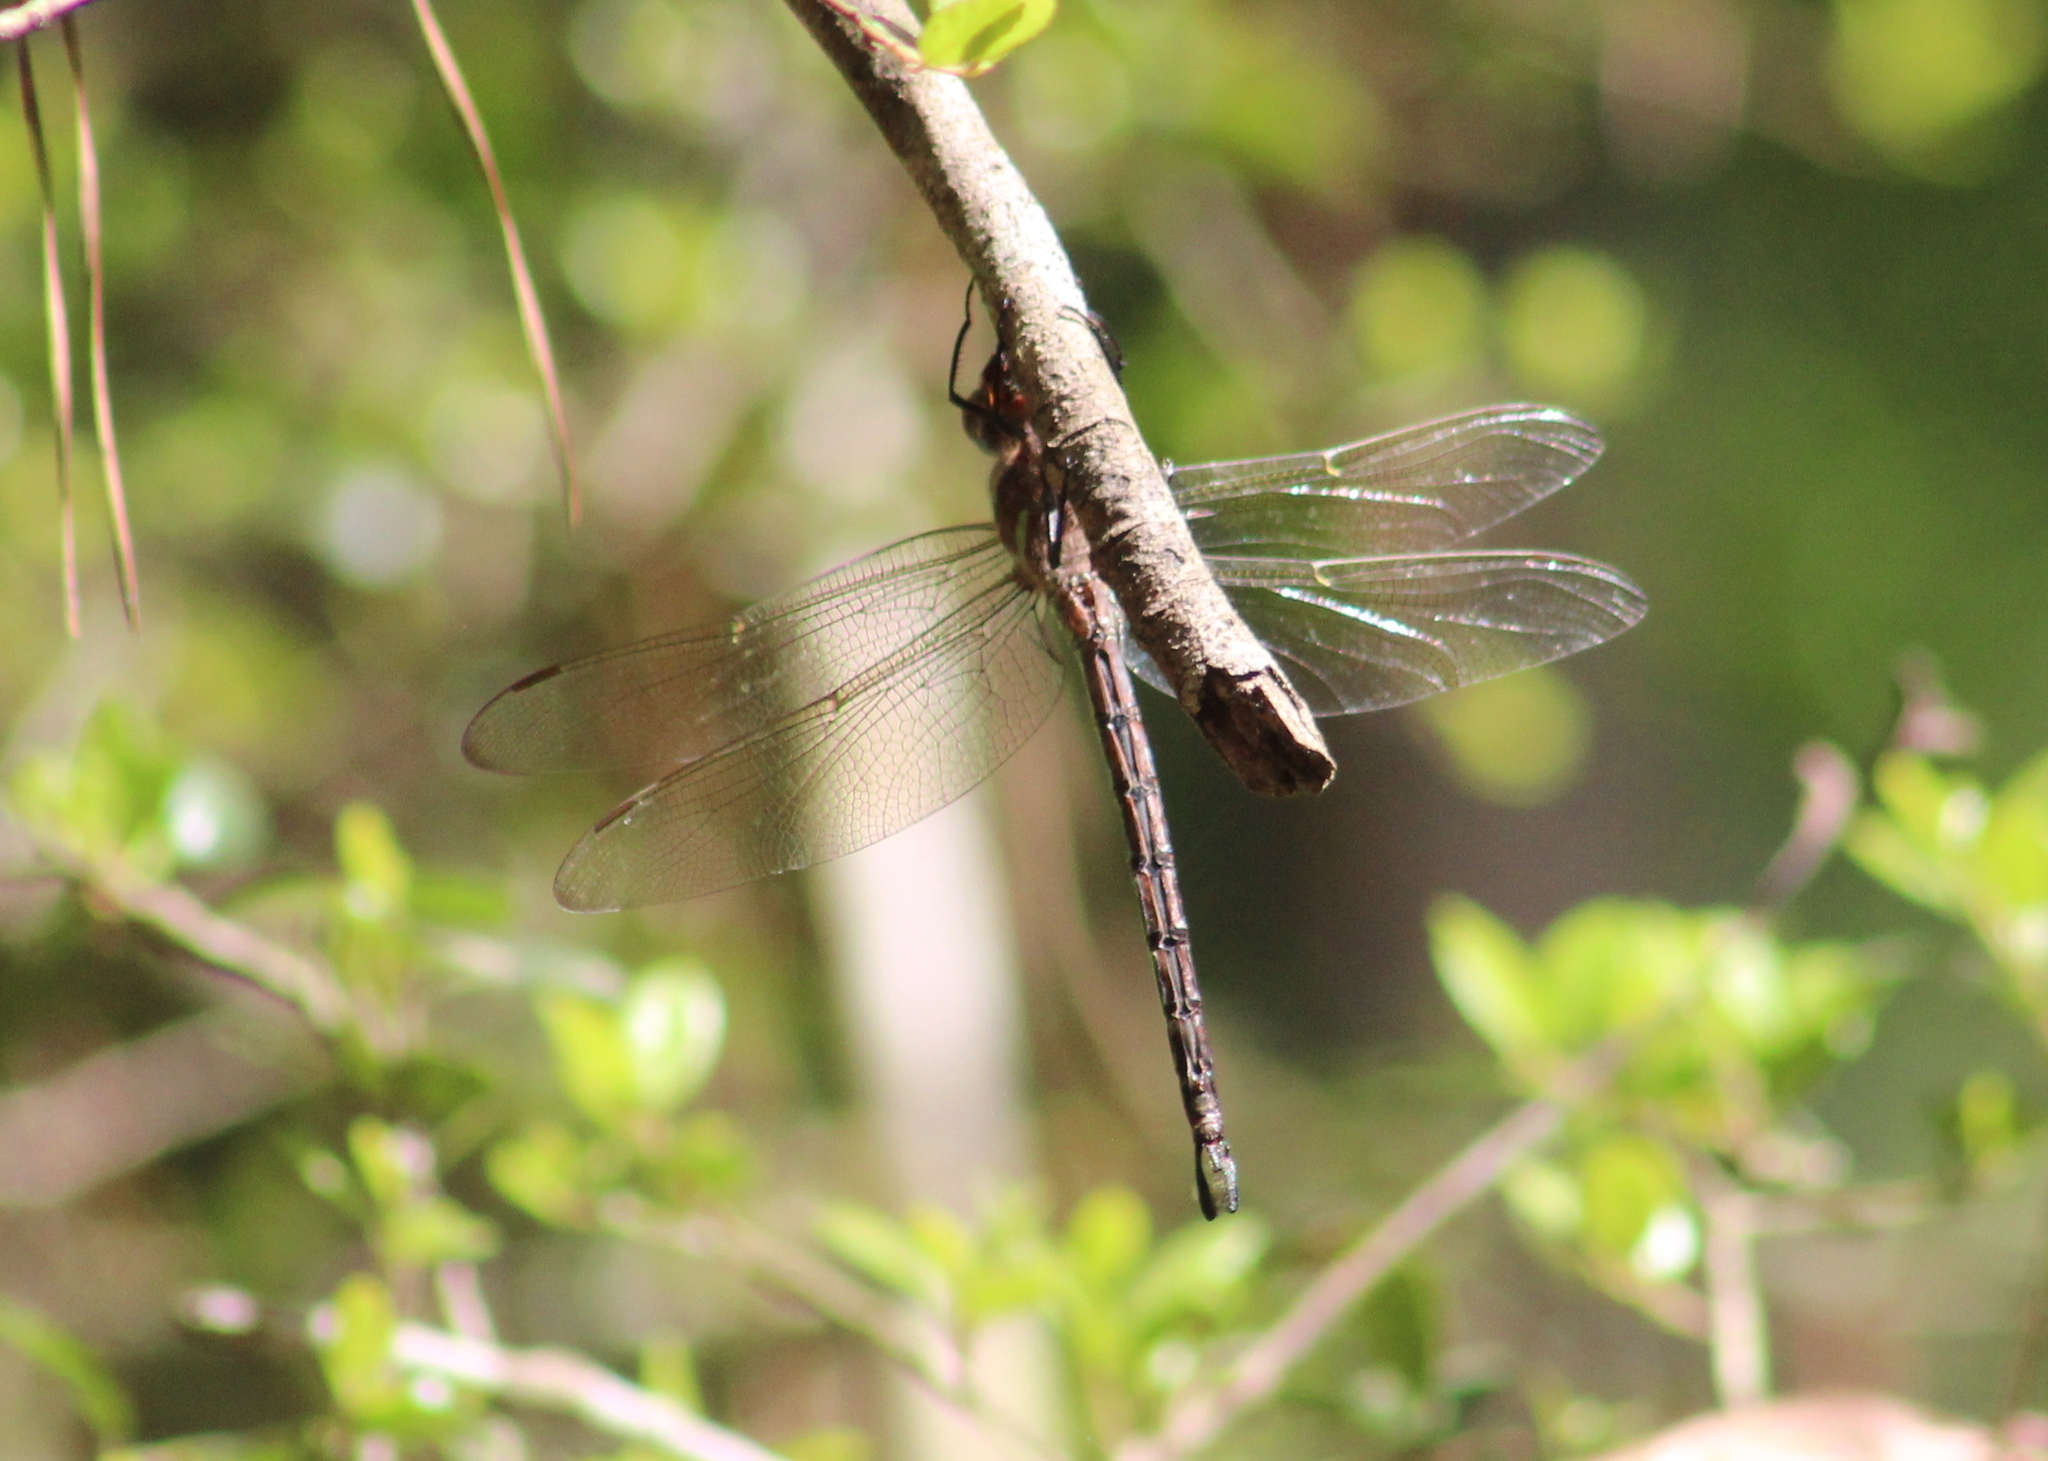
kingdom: Animalia
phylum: Arthropoda
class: Insecta
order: Odonata
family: Aeshnidae
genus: Epiaeschna
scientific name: Epiaeschna heros
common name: Swamp darner
